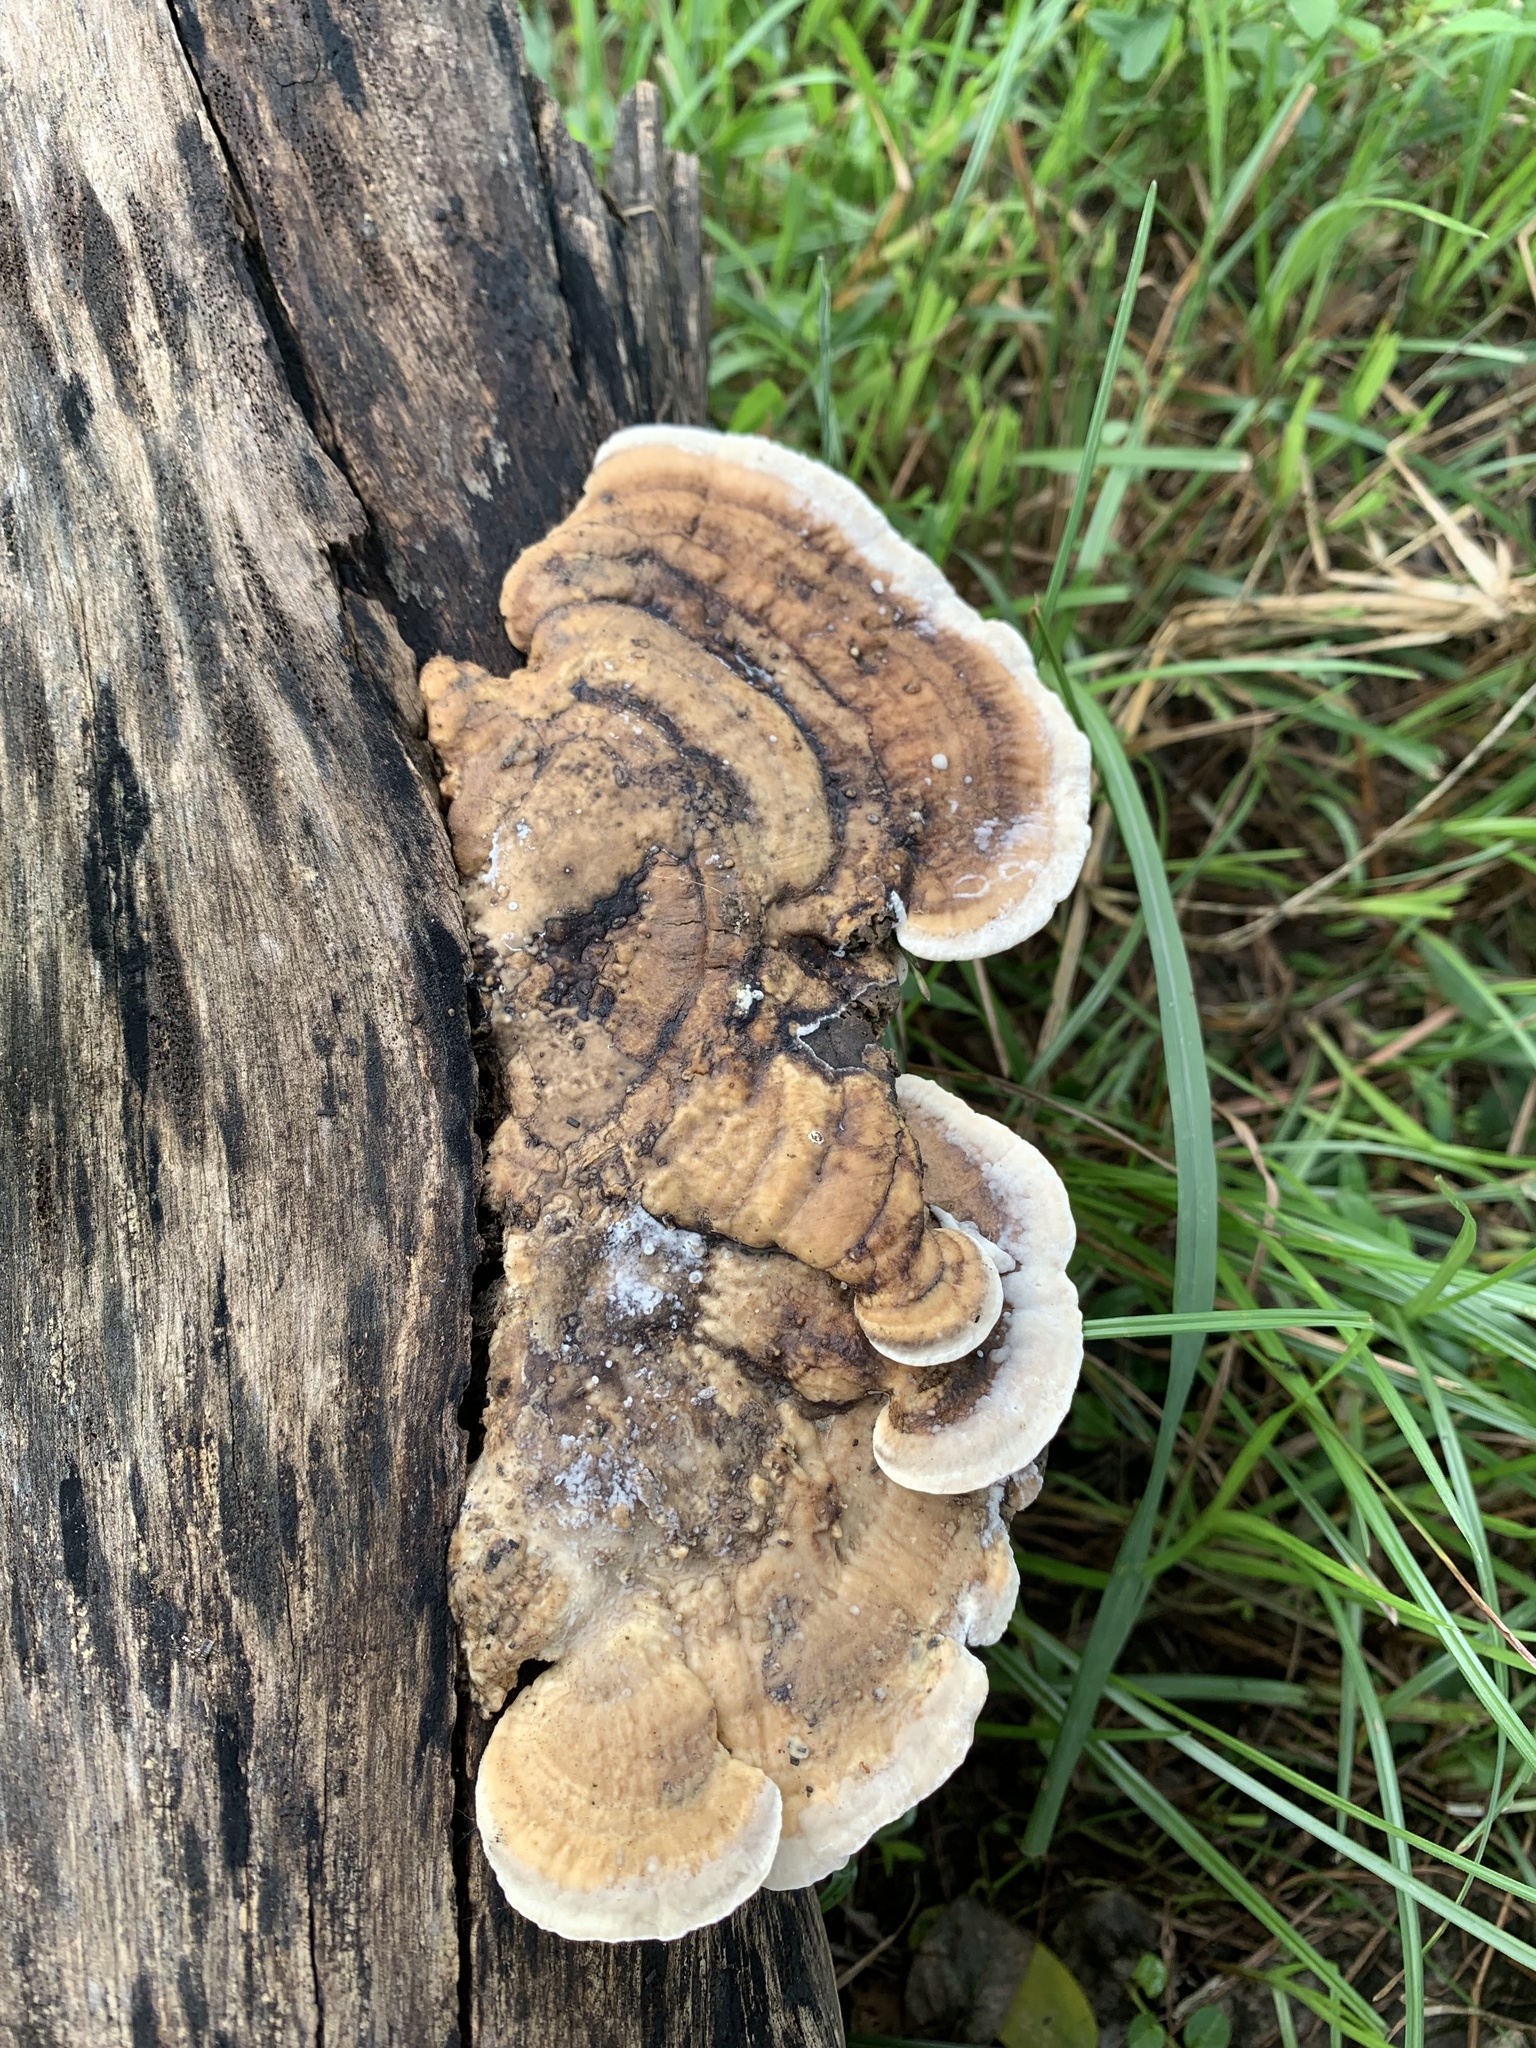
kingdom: Fungi
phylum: Basidiomycota
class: Agaricomycetes
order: Polyporales
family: Polyporaceae
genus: Trametes
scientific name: Trametes cubensis
